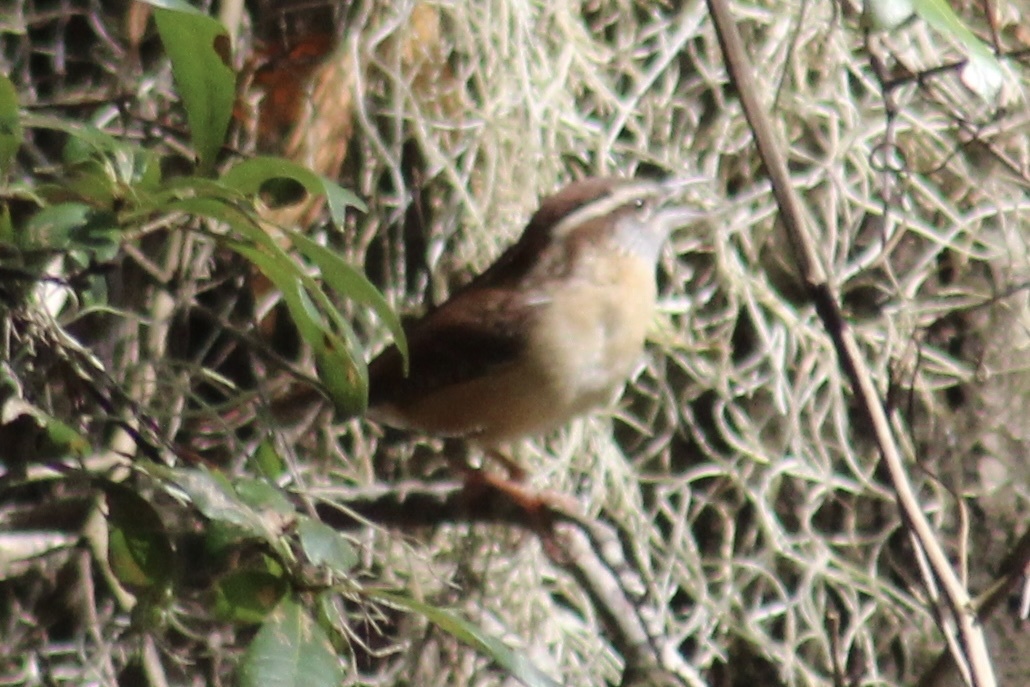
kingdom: Animalia
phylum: Chordata
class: Aves
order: Passeriformes
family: Troglodytidae
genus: Thryothorus
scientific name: Thryothorus ludovicianus
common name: Carolina wren
